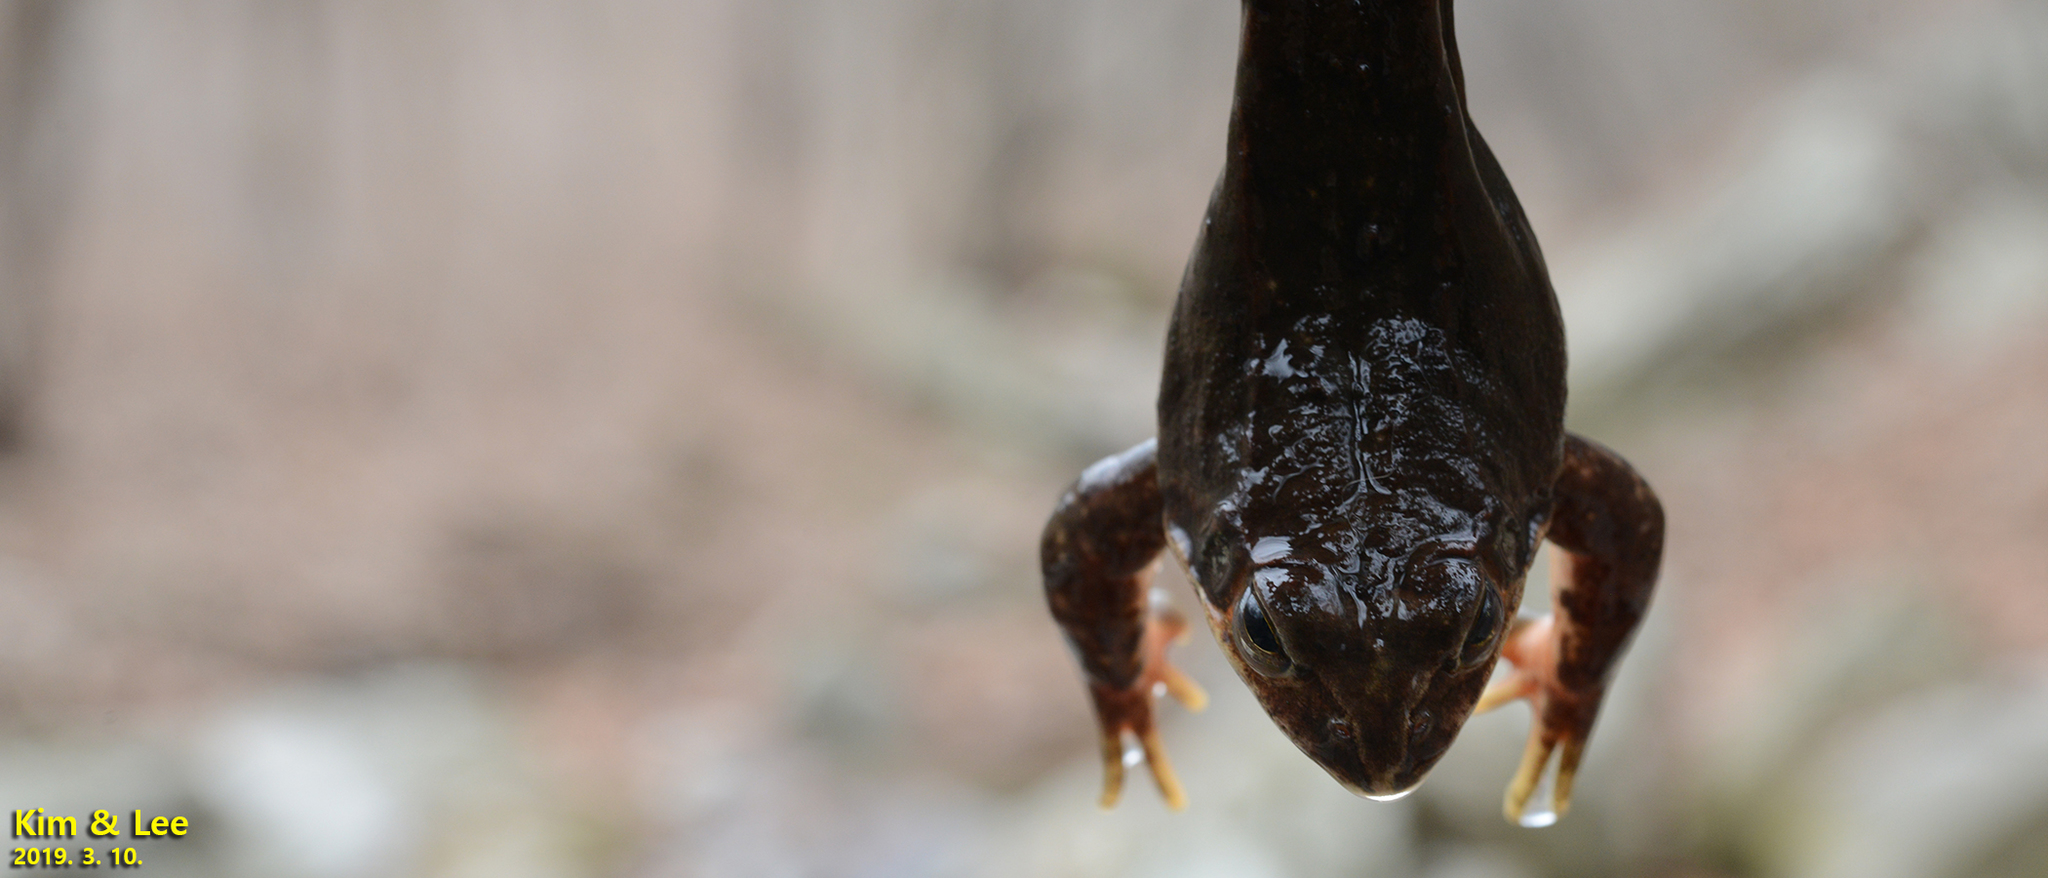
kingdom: Animalia
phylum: Chordata
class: Amphibia
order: Anura
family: Ranidae
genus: Rana
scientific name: Rana dybowskii
